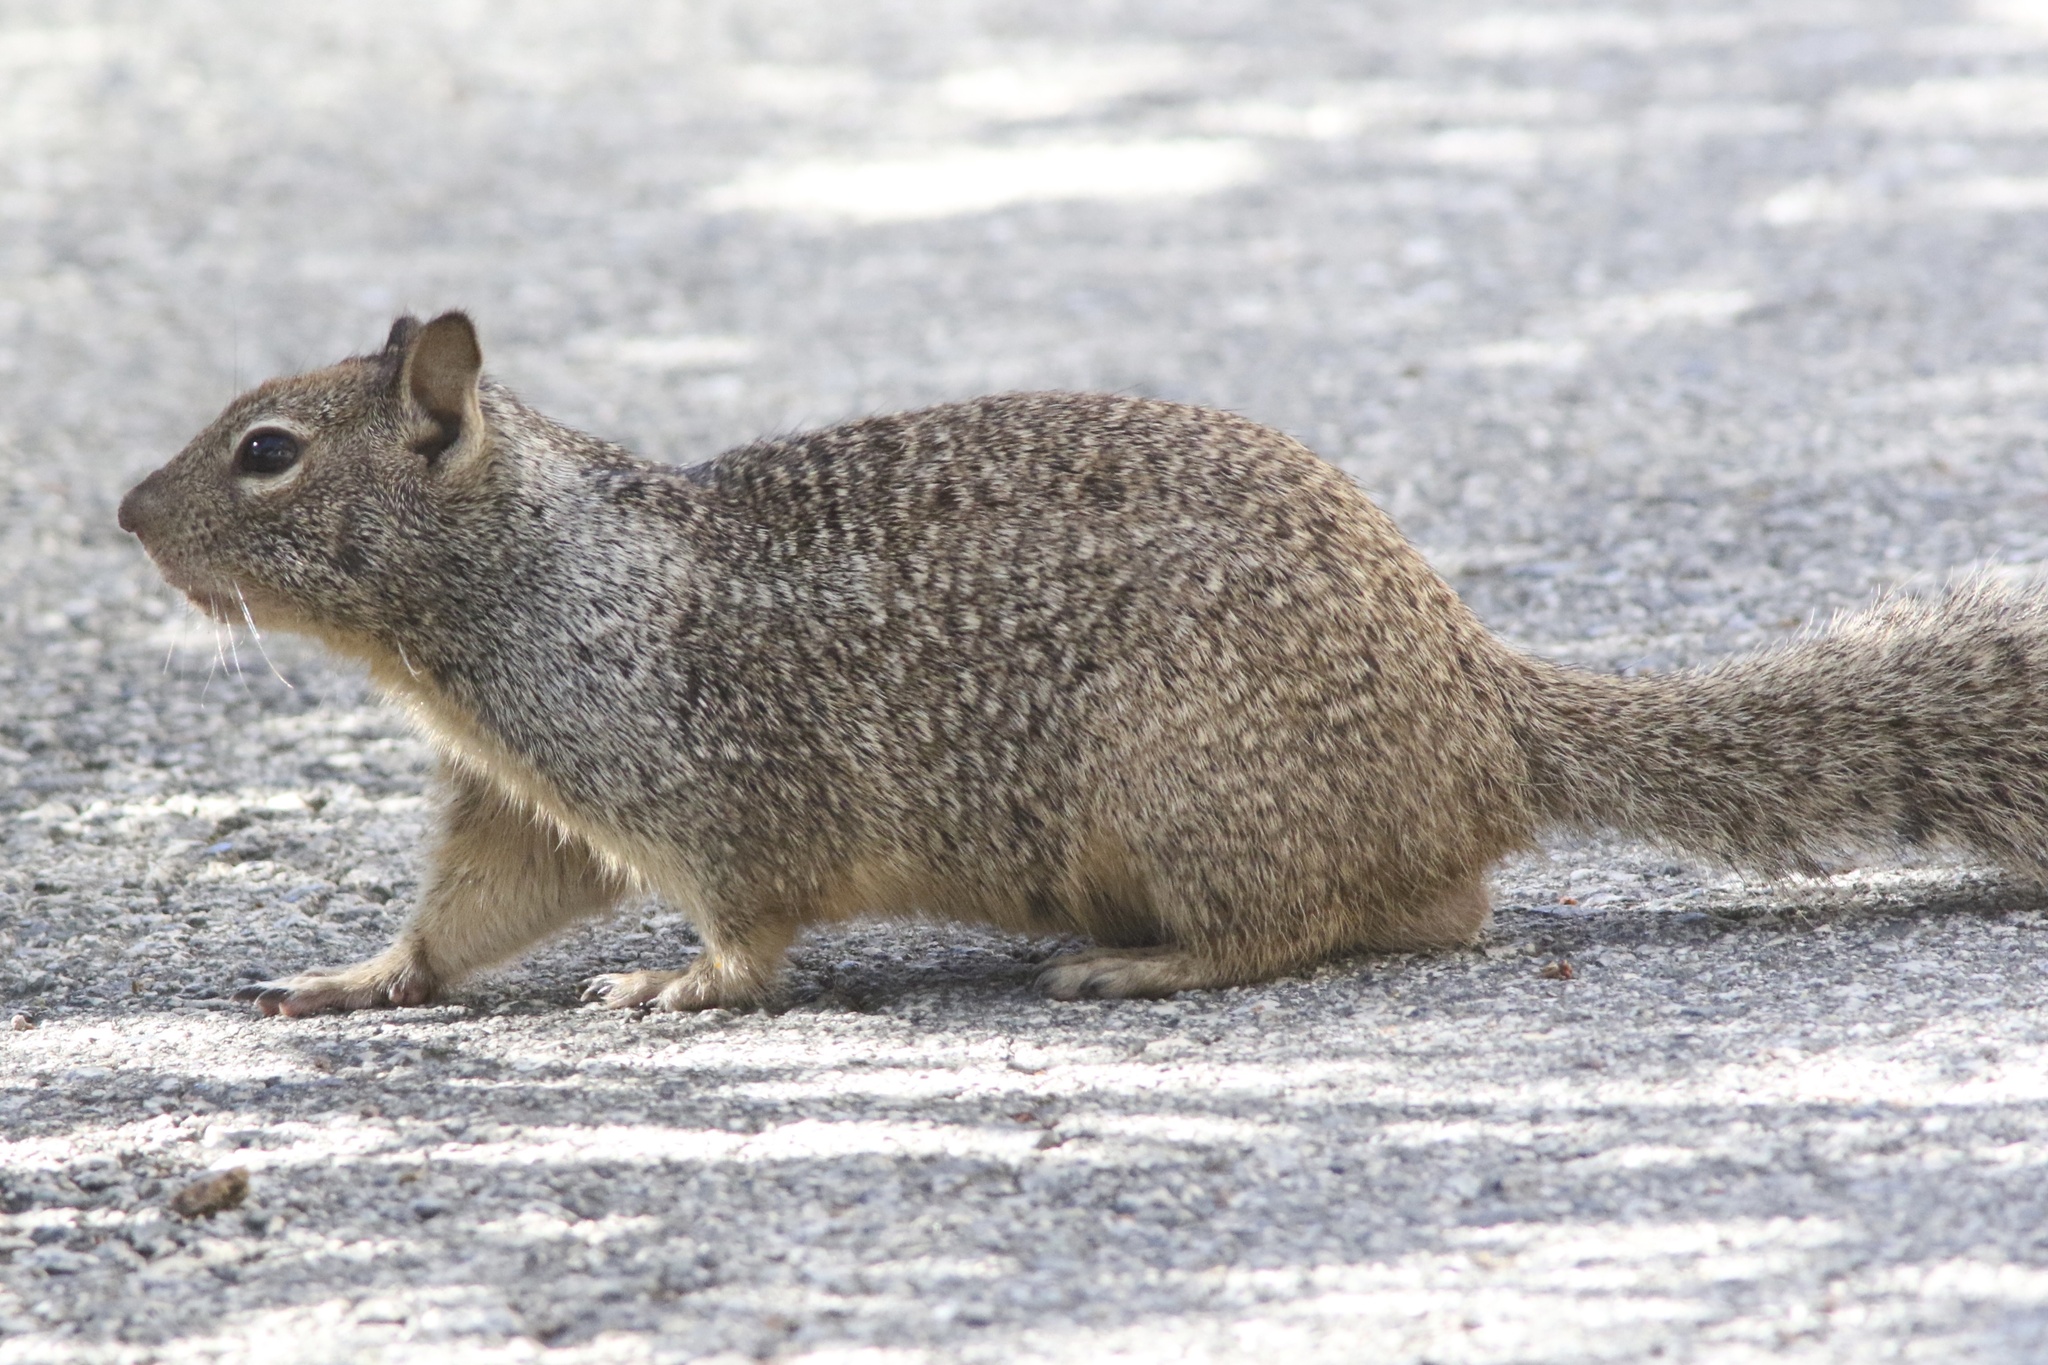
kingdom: Animalia
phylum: Chordata
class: Mammalia
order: Rodentia
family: Sciuridae
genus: Otospermophilus
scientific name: Otospermophilus beecheyi
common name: California ground squirrel
